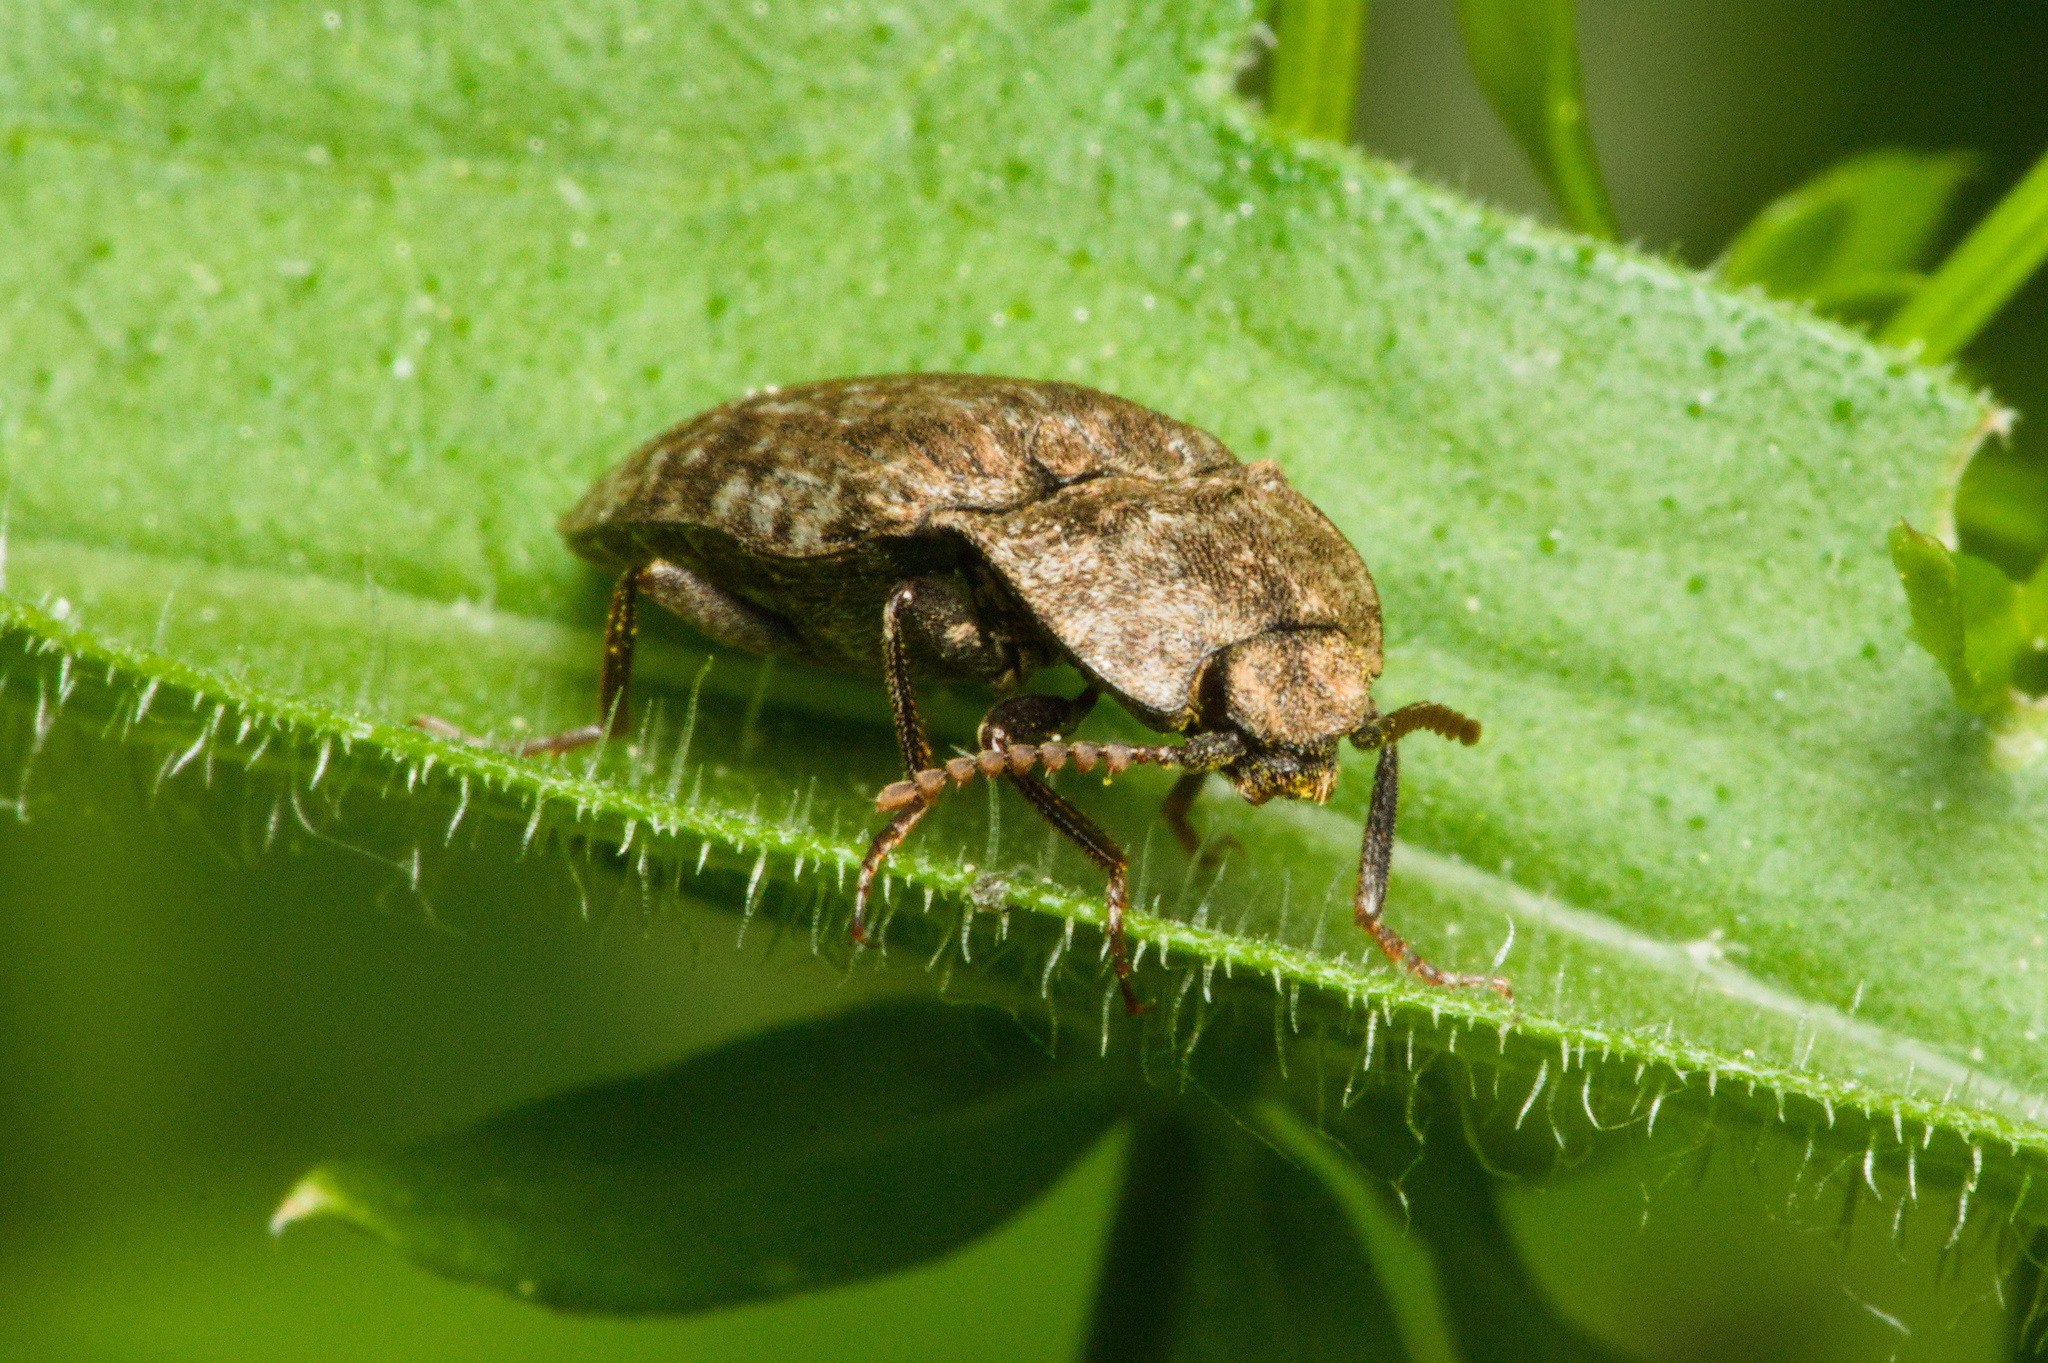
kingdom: Animalia
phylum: Arthropoda
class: Insecta
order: Coleoptera
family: Elateridae
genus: Agrypnus
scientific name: Agrypnus murinus
